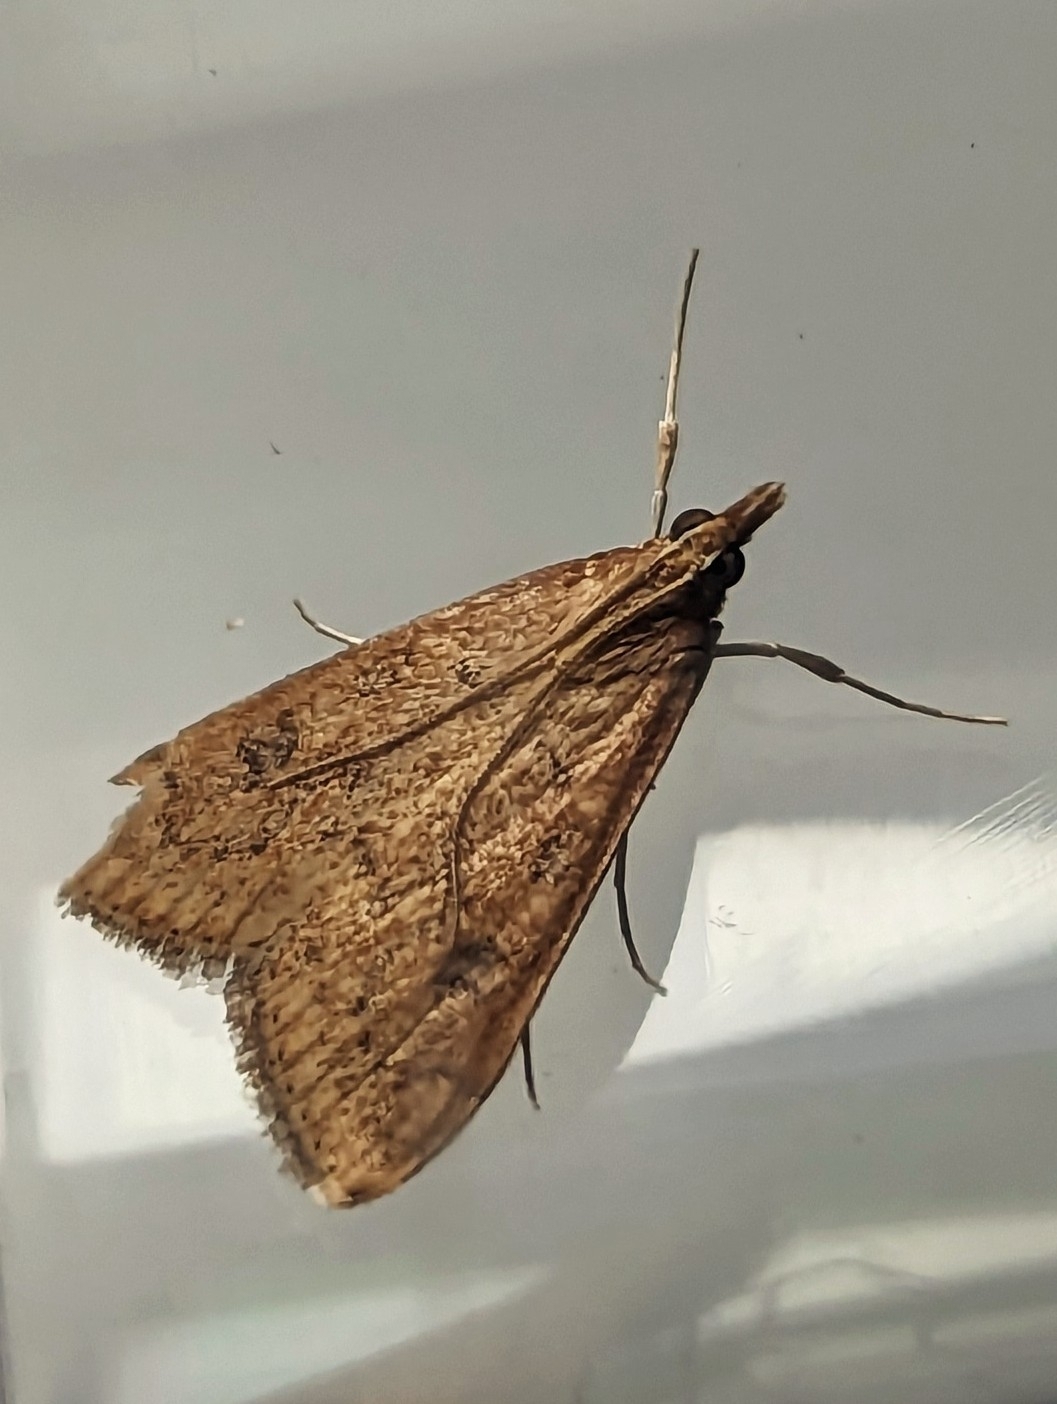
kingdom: Animalia
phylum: Arthropoda
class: Insecta
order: Lepidoptera
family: Crambidae
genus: Udea
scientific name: Udea ferrugalis
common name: Rusty dot
